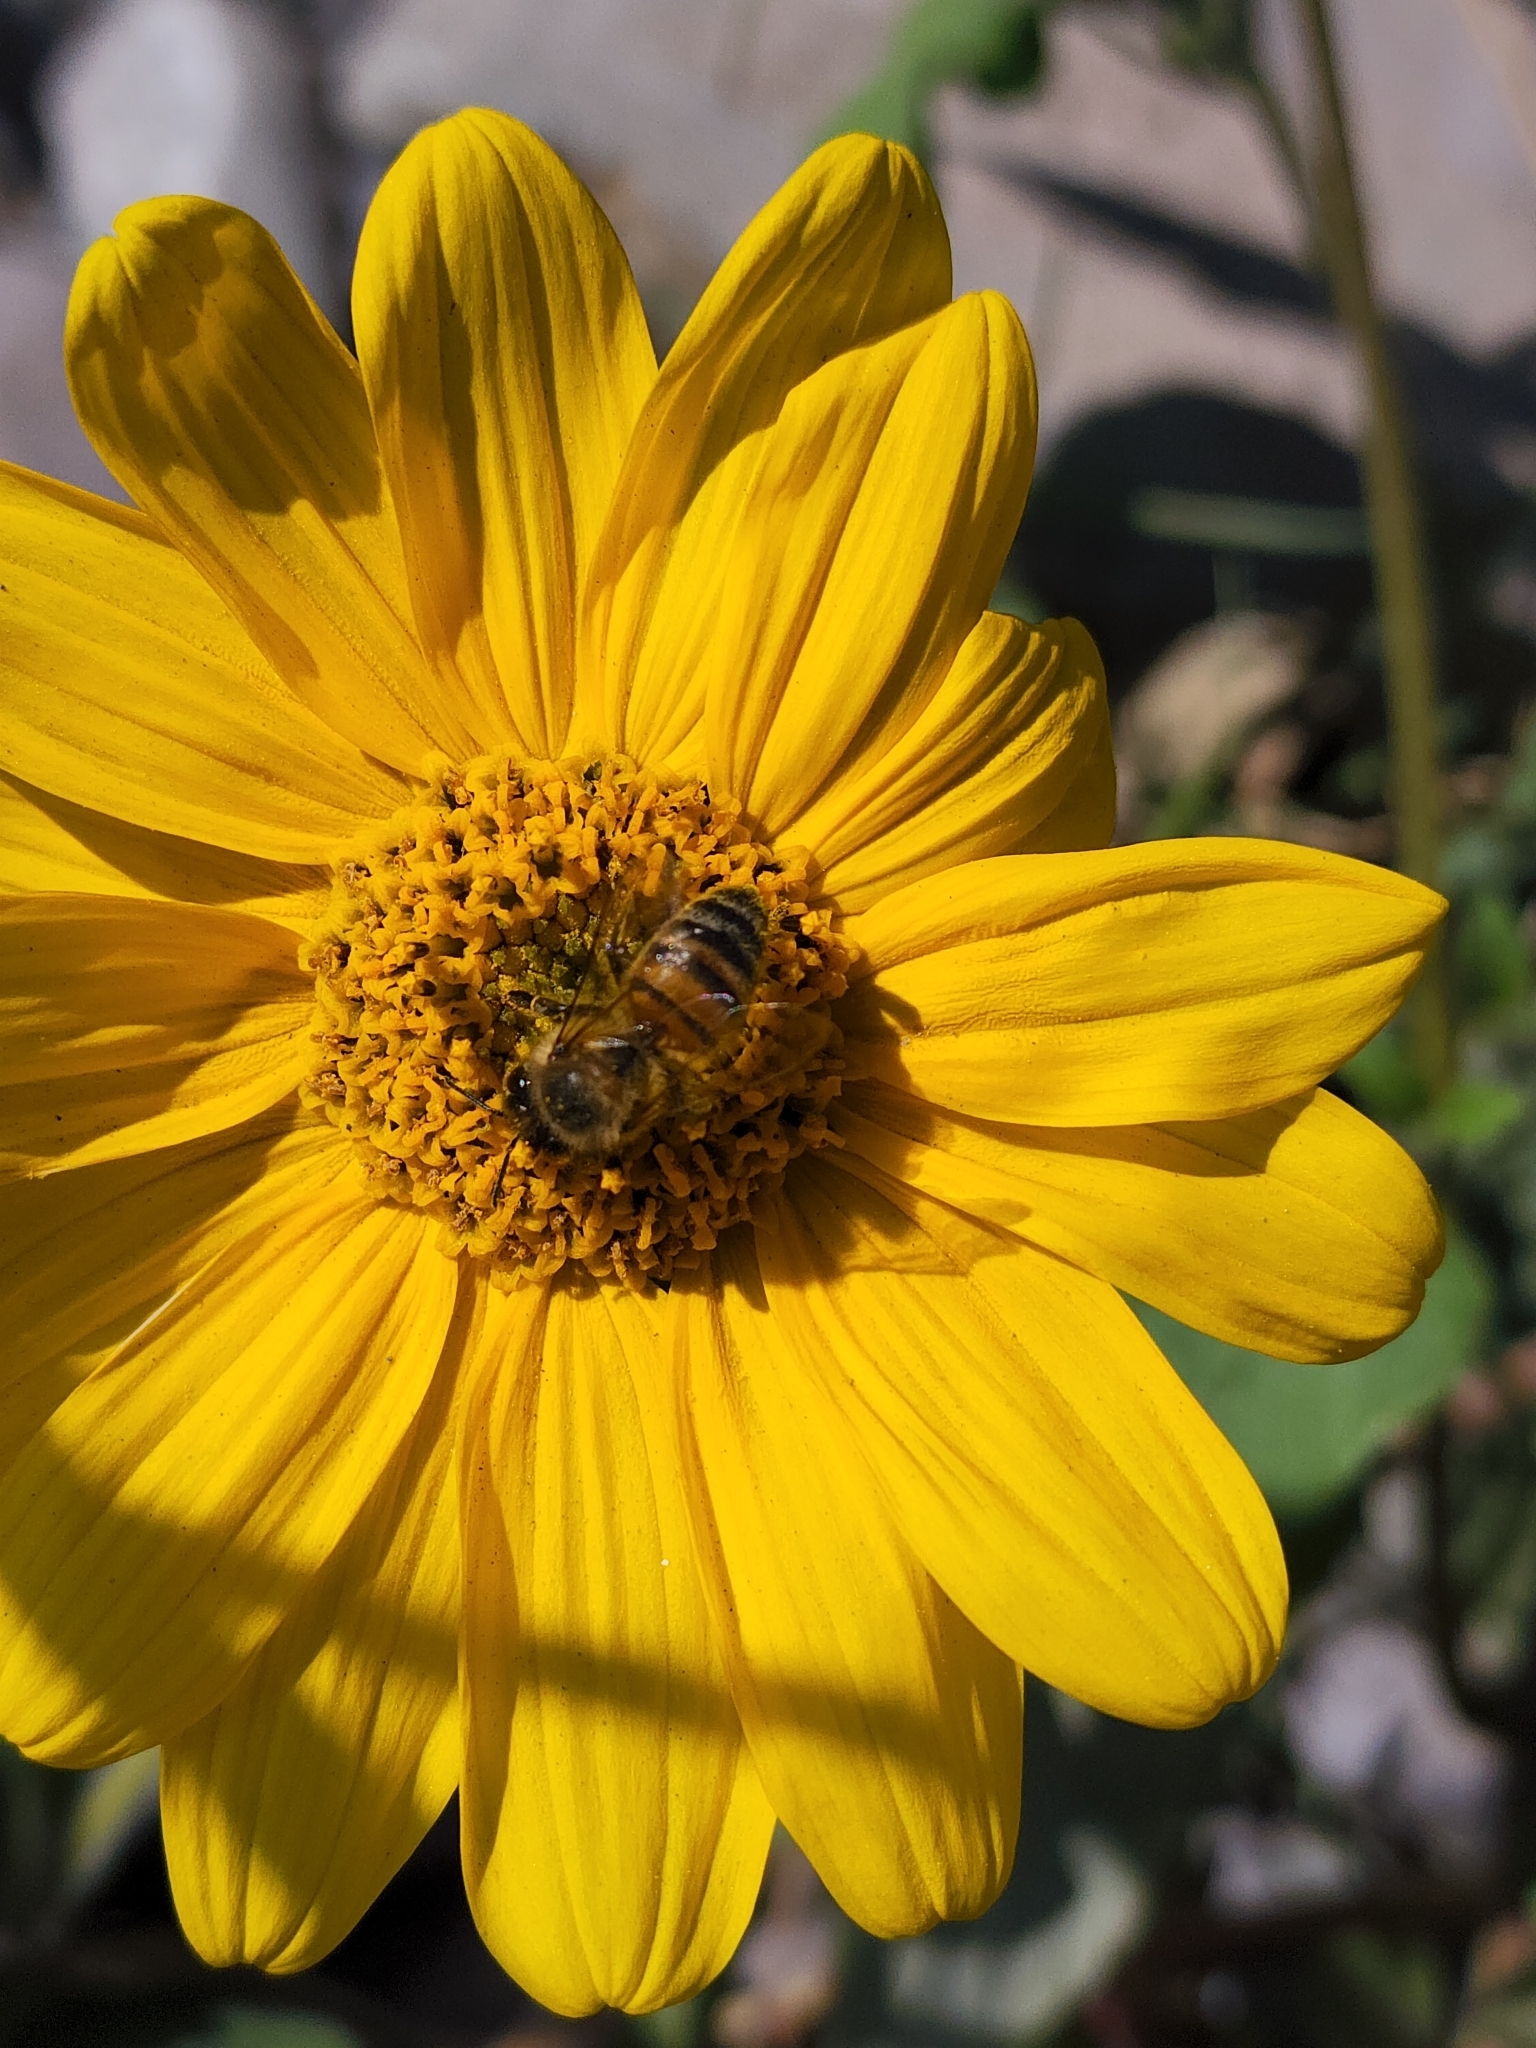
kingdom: Animalia
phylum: Arthropoda
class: Insecta
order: Hymenoptera
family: Apidae
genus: Apis
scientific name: Apis mellifera
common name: Honey bee
